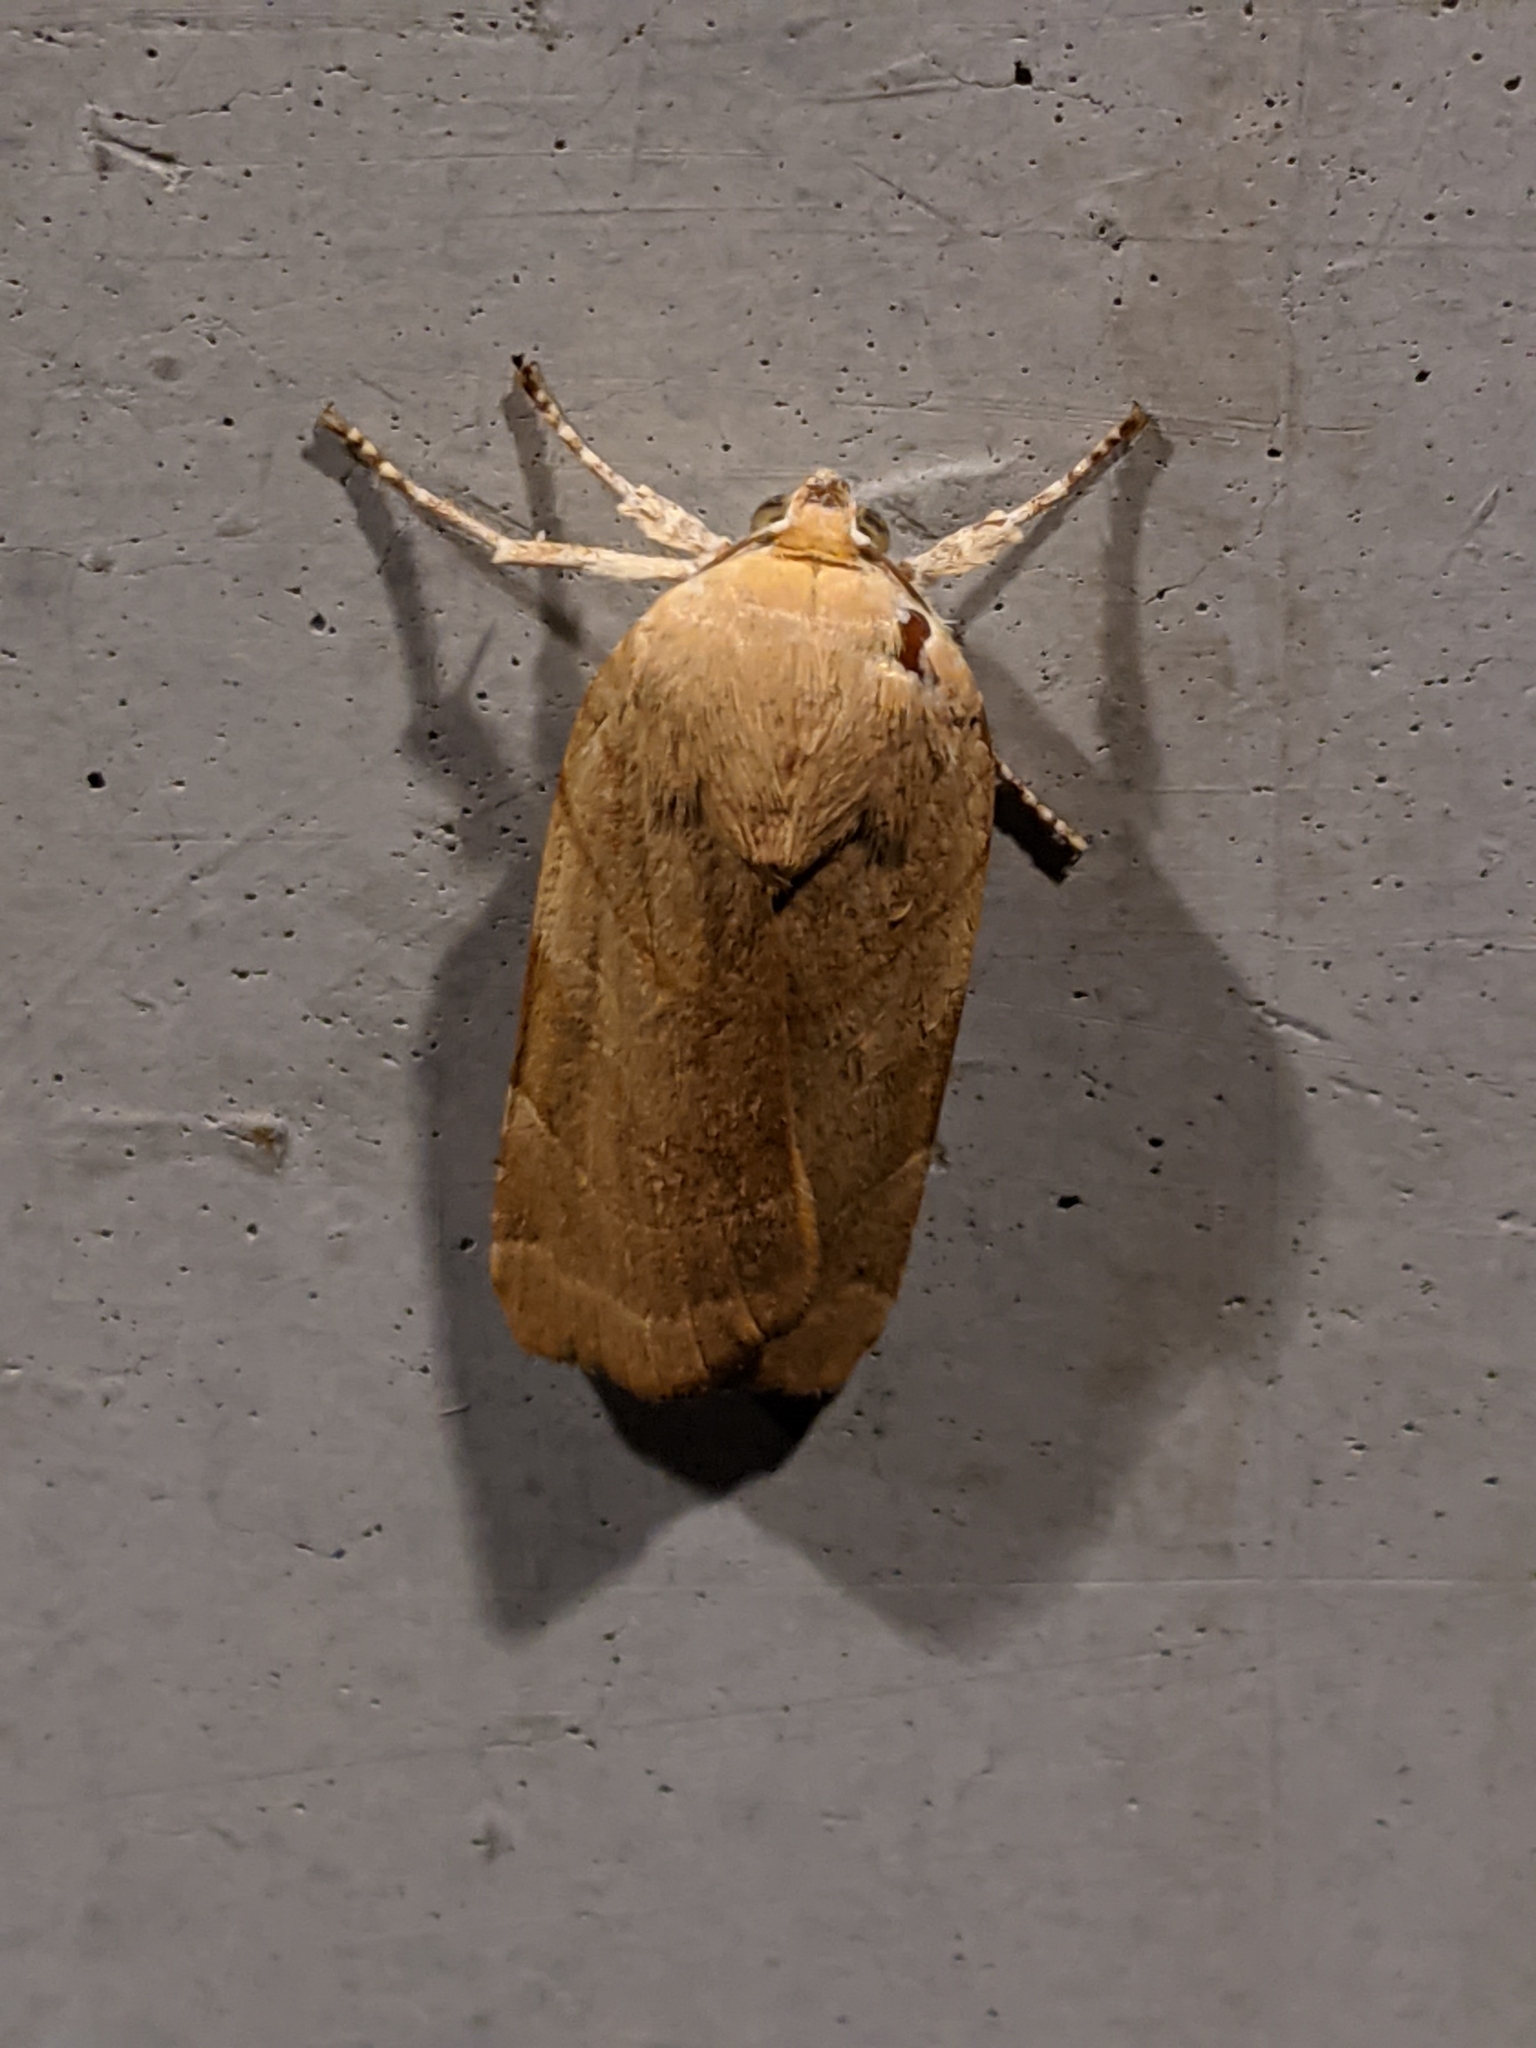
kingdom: Animalia
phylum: Arthropoda
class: Insecta
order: Lepidoptera
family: Noctuidae
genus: Noctua
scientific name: Noctua fimbriata
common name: Broad-bordered yellow underwing
